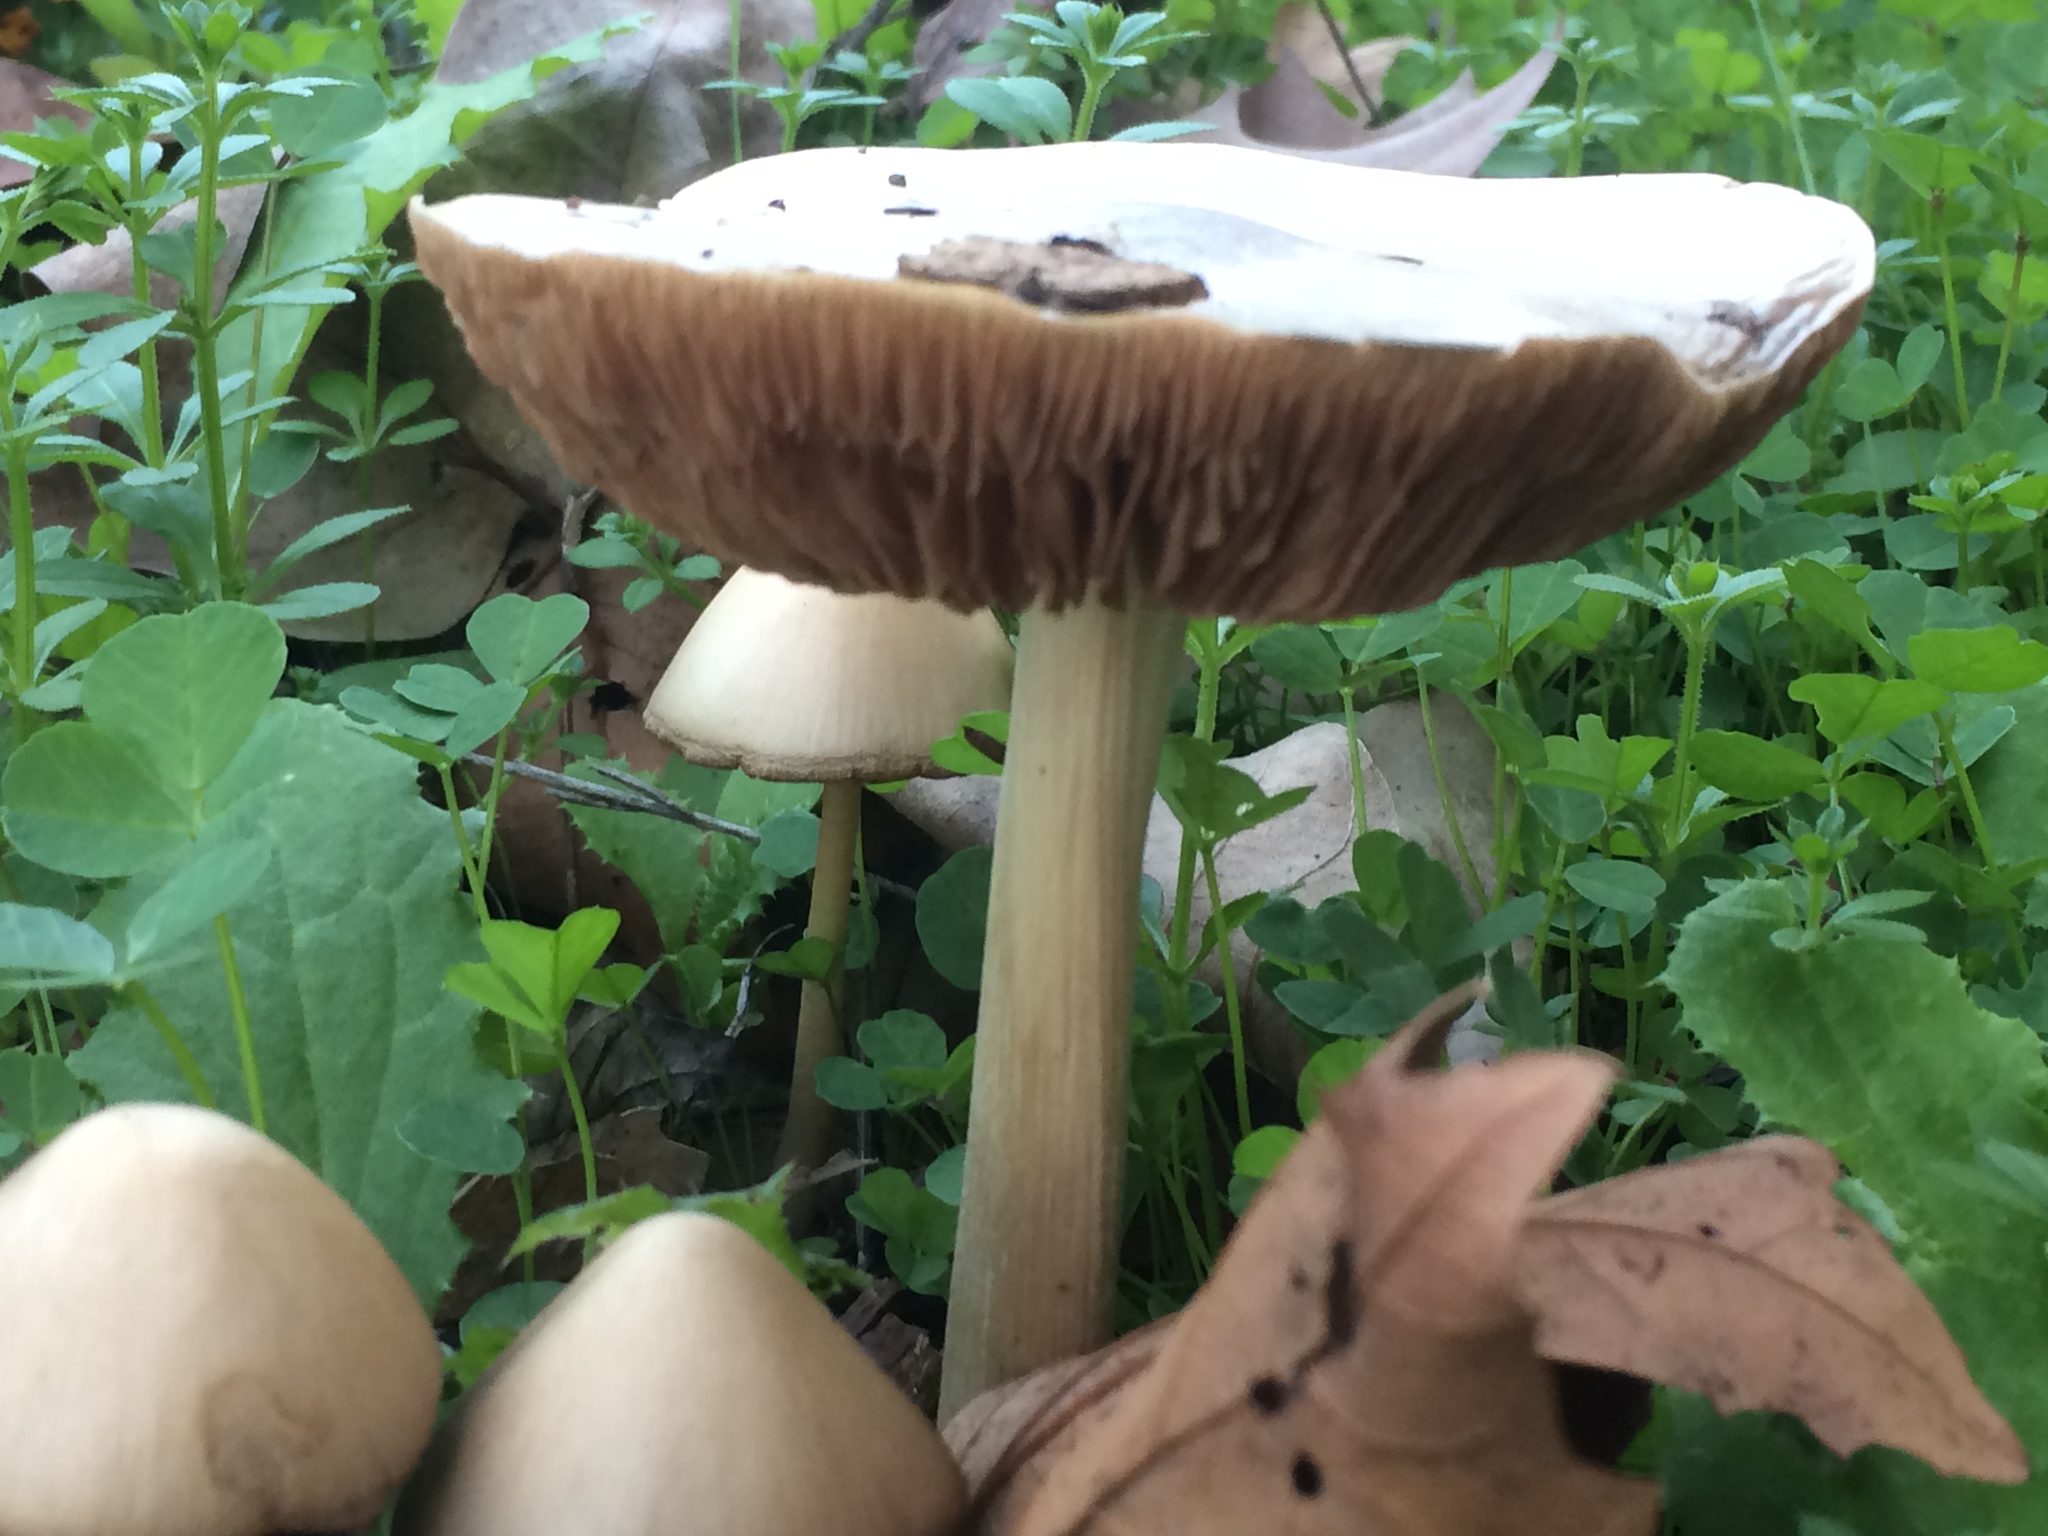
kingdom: Fungi
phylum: Basidiomycota
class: Agaricomycetes
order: Agaricales
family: Pluteaceae
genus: Volvopluteus
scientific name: Volvopluteus gloiocephalus
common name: Stubble rosegill
